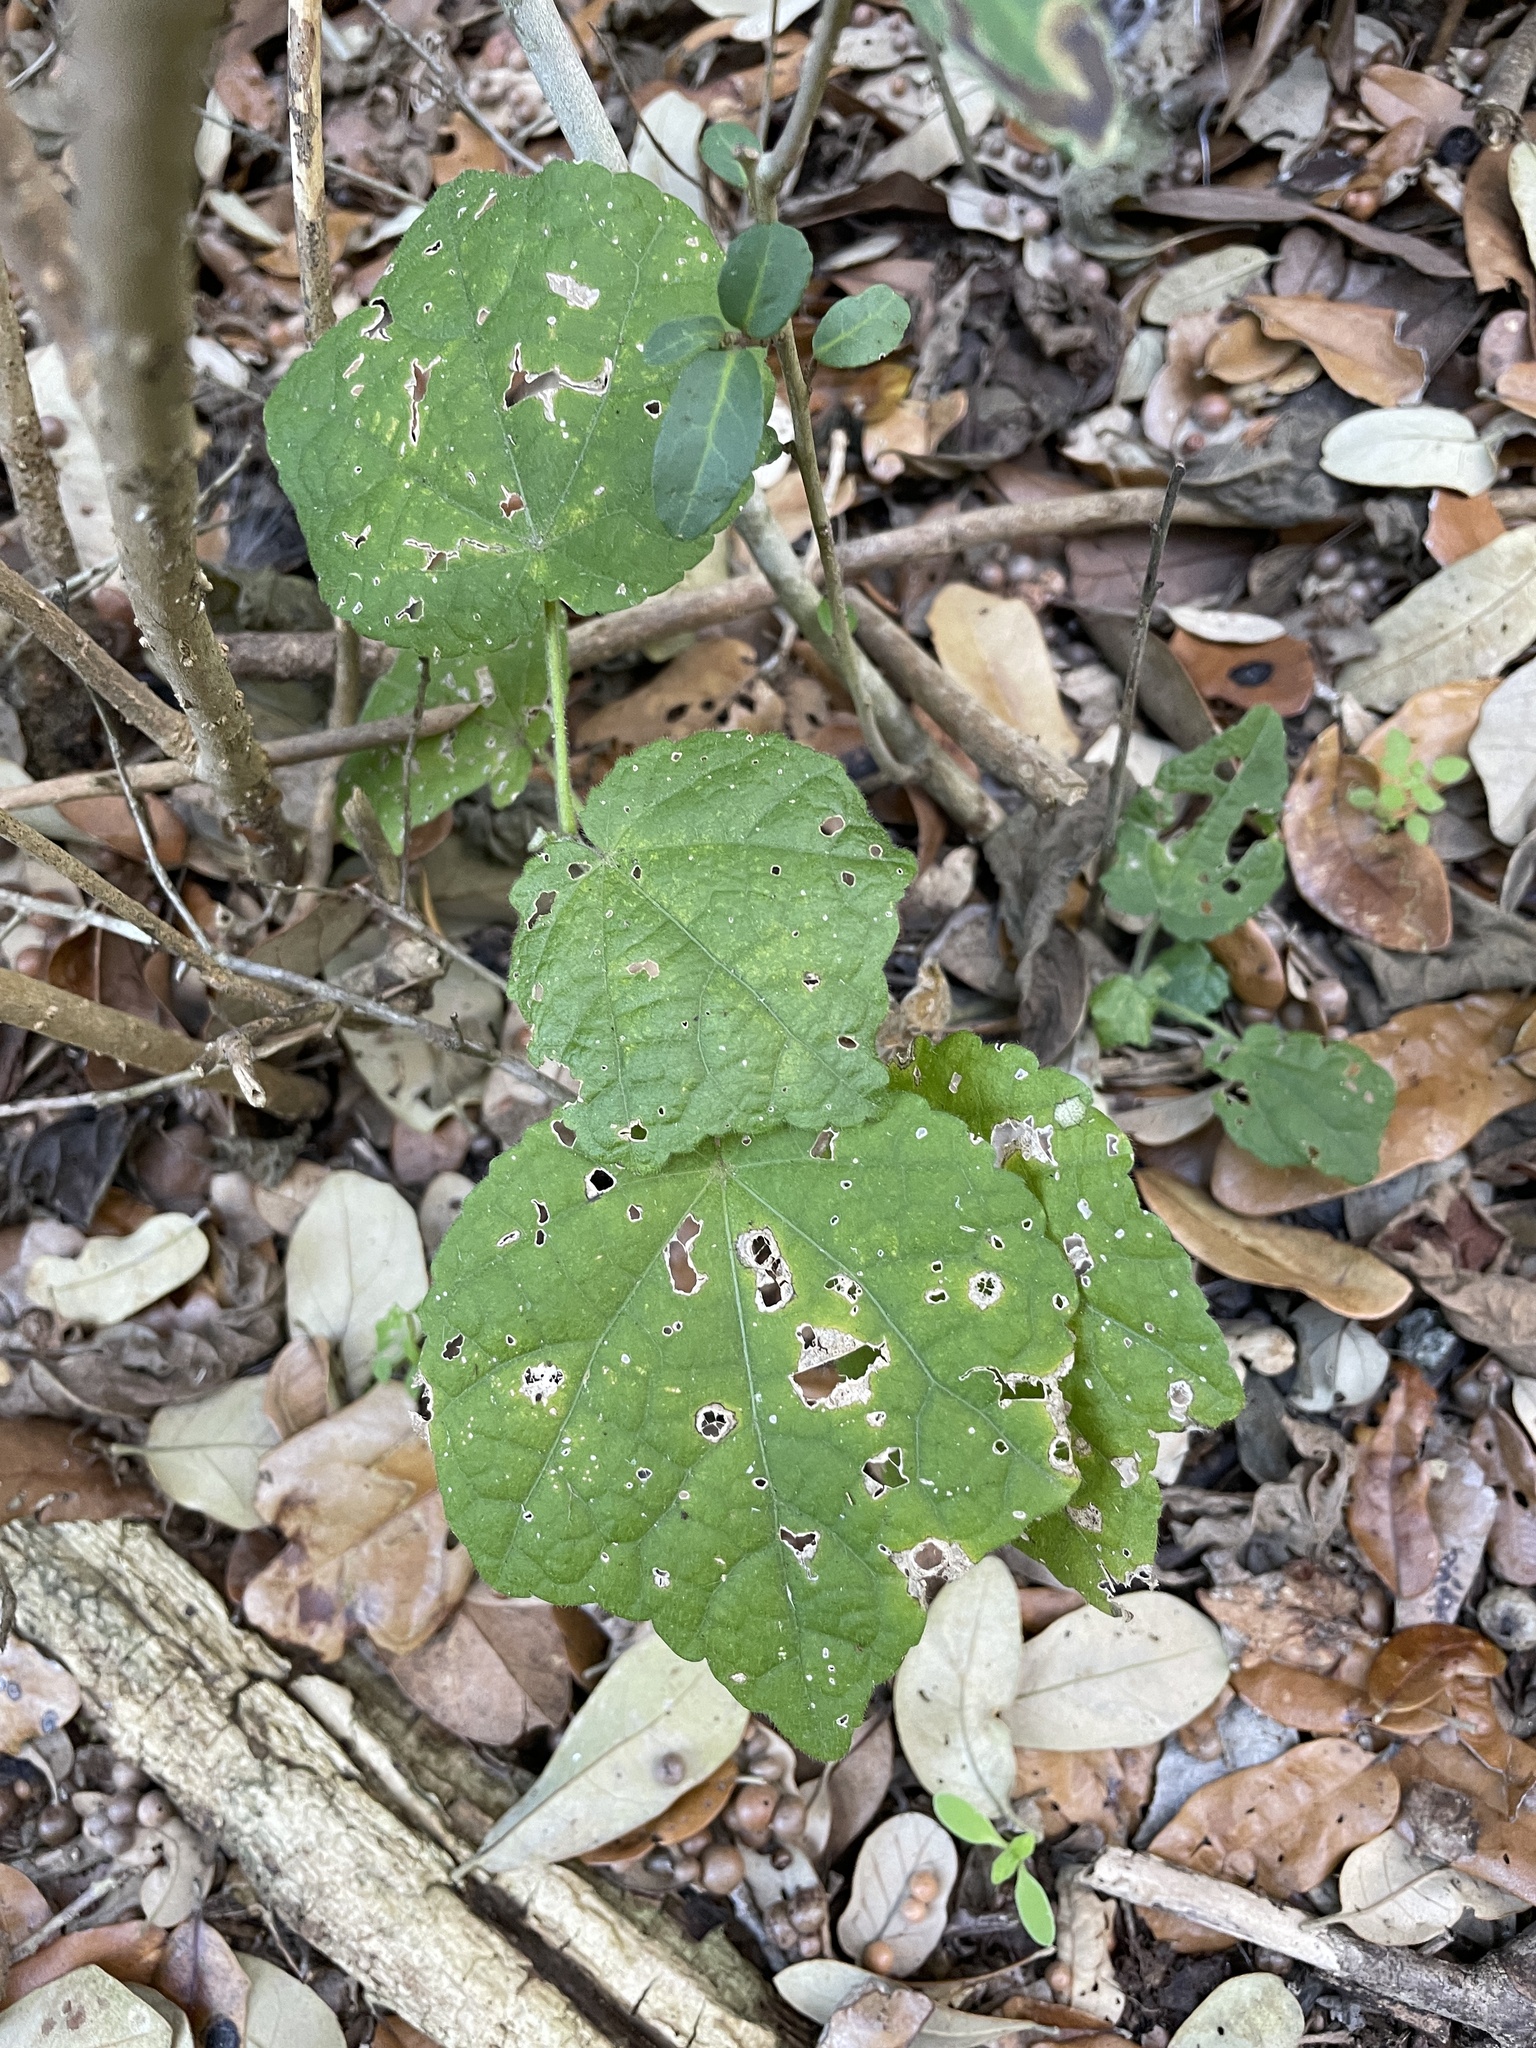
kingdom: Plantae
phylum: Tracheophyta
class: Magnoliopsida
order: Malvales
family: Malvaceae
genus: Malvaviscus
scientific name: Malvaviscus arboreus
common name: Wax mallow
